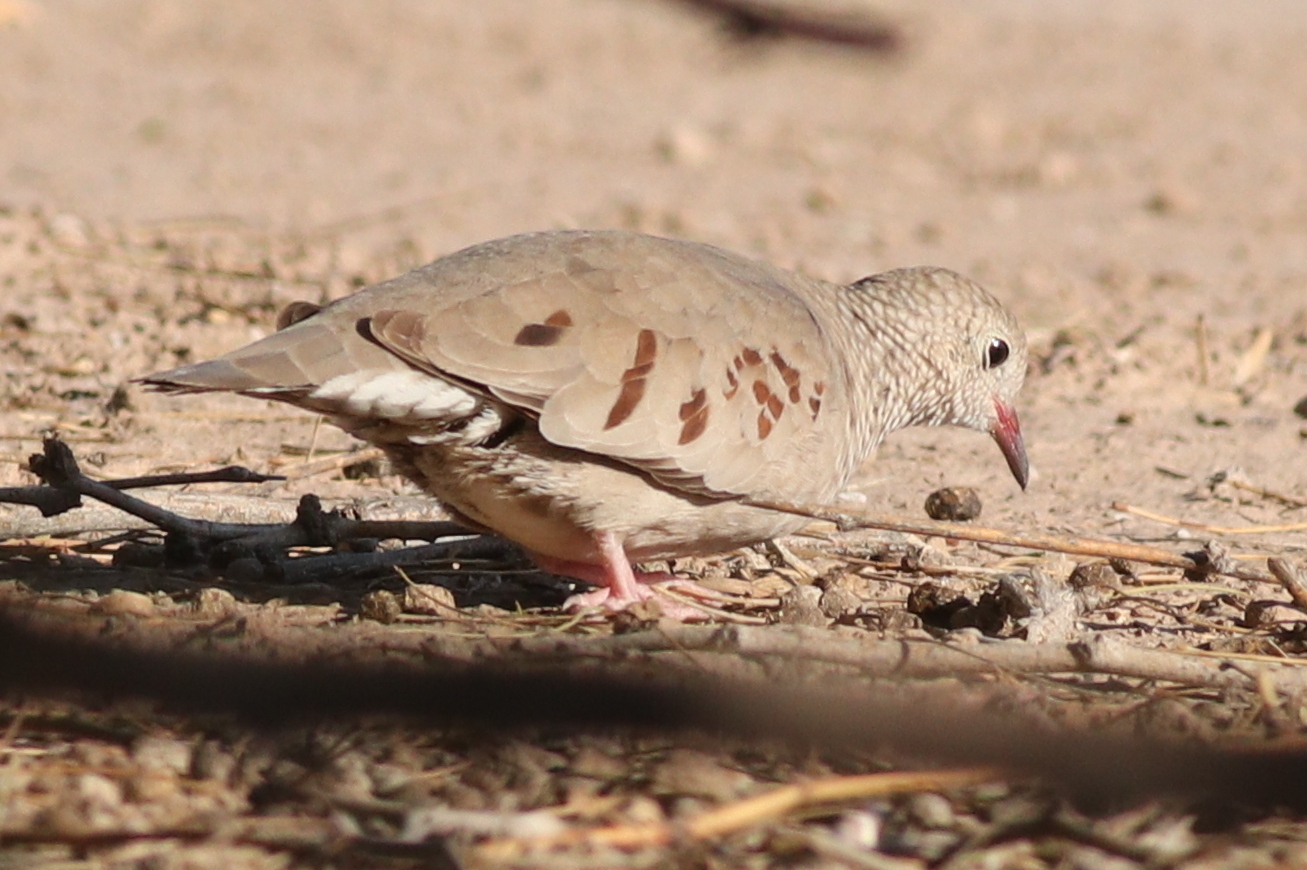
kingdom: Animalia
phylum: Chordata
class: Aves
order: Columbiformes
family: Columbidae
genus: Columbina
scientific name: Columbina passerina
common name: Common ground-dove
